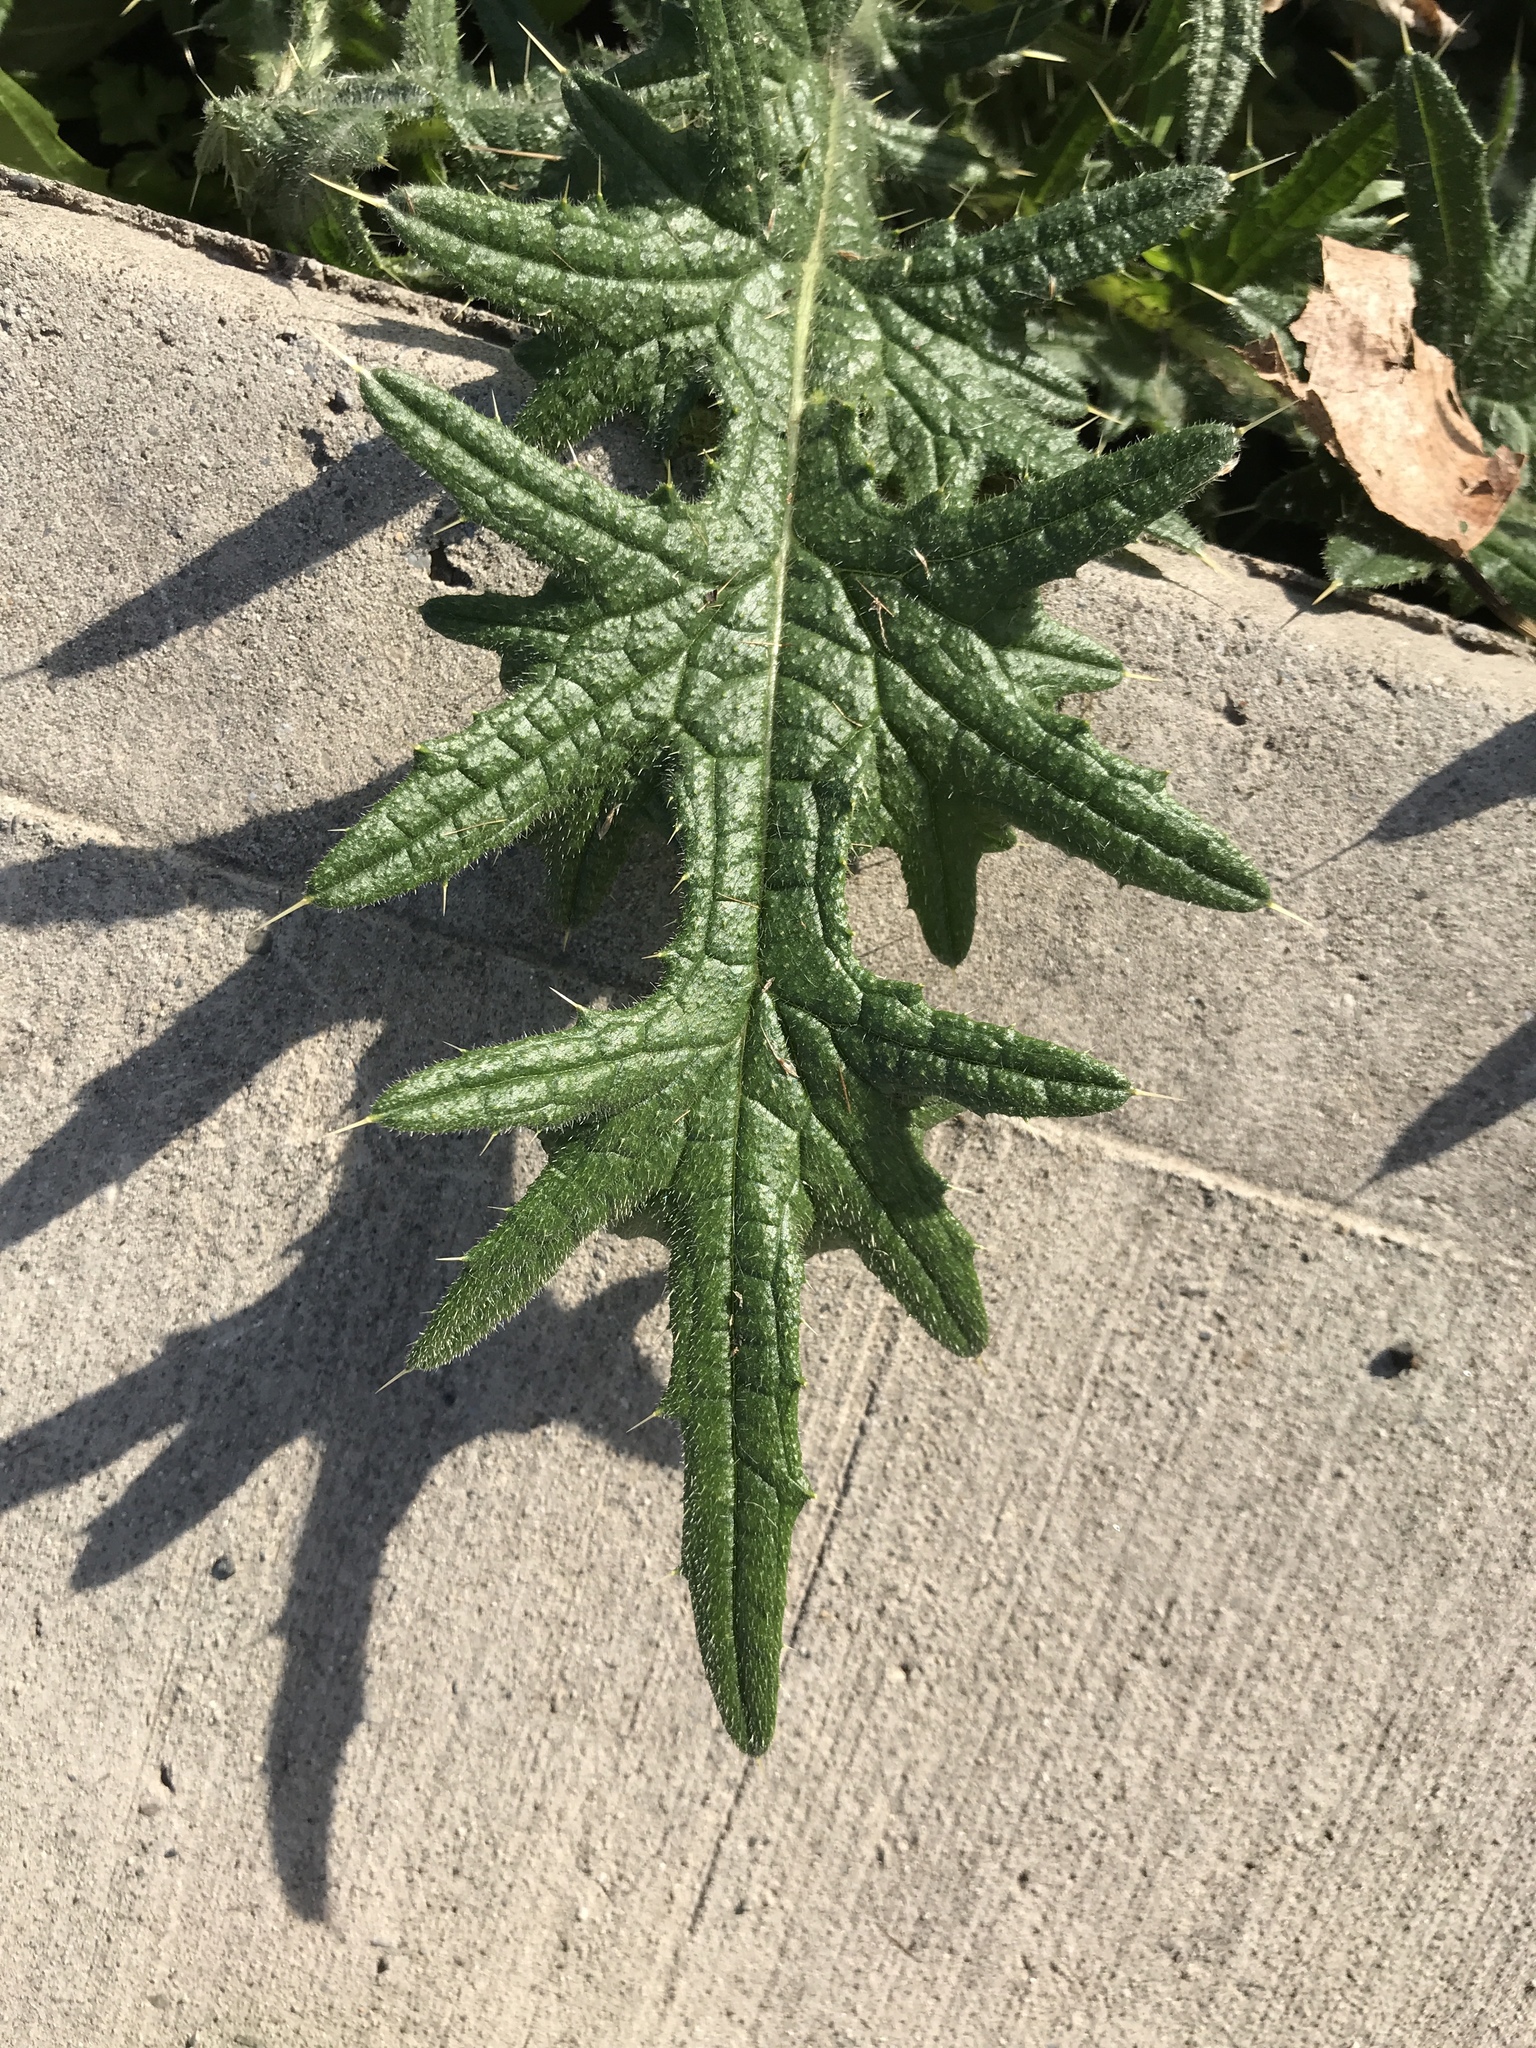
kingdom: Plantae
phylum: Tracheophyta
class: Magnoliopsida
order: Asterales
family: Asteraceae
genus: Cirsium
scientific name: Cirsium vulgare
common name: Bull thistle
